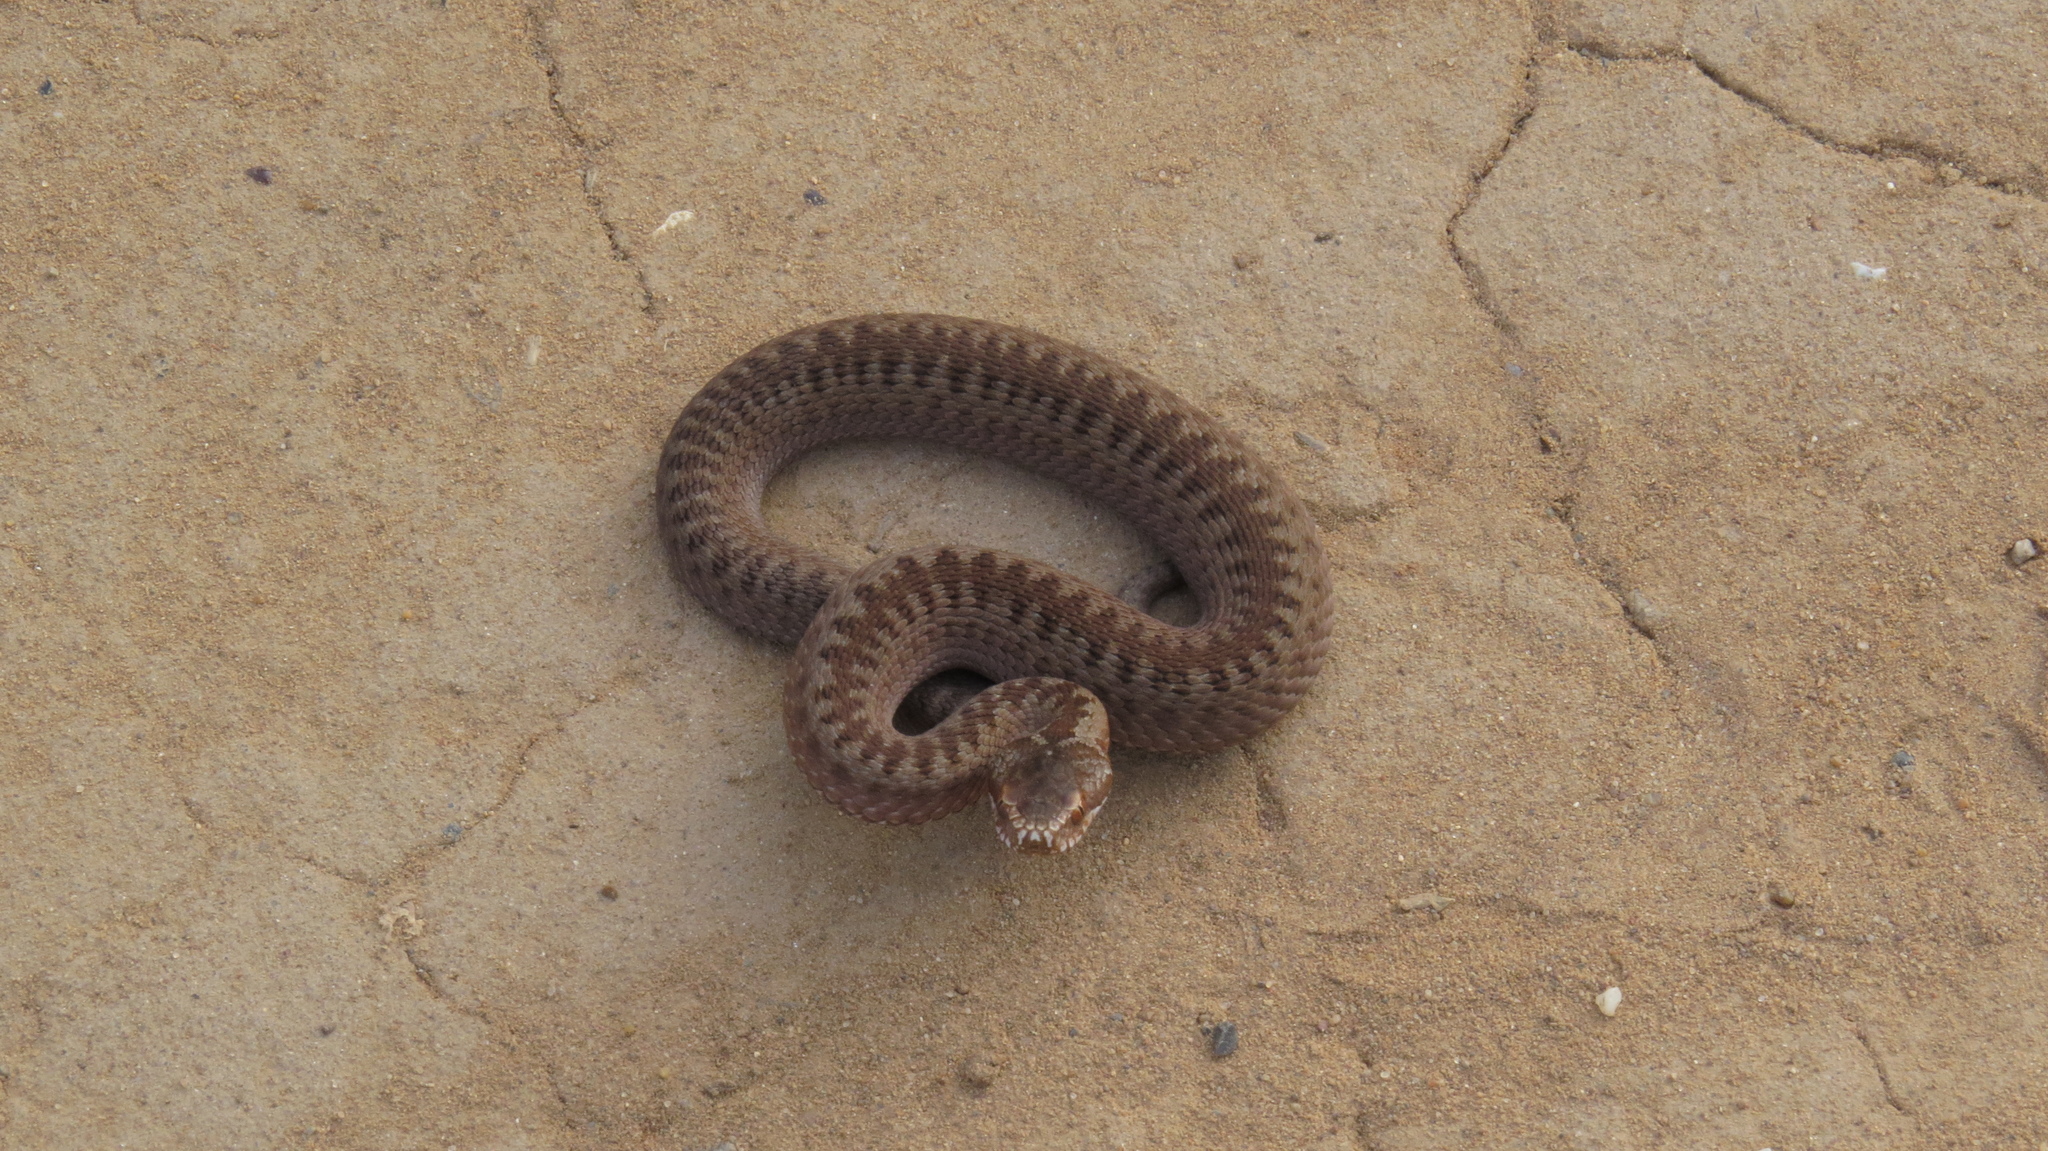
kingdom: Animalia
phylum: Chordata
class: Squamata
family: Viperidae
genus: Vipera
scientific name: Vipera berus
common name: Adder
